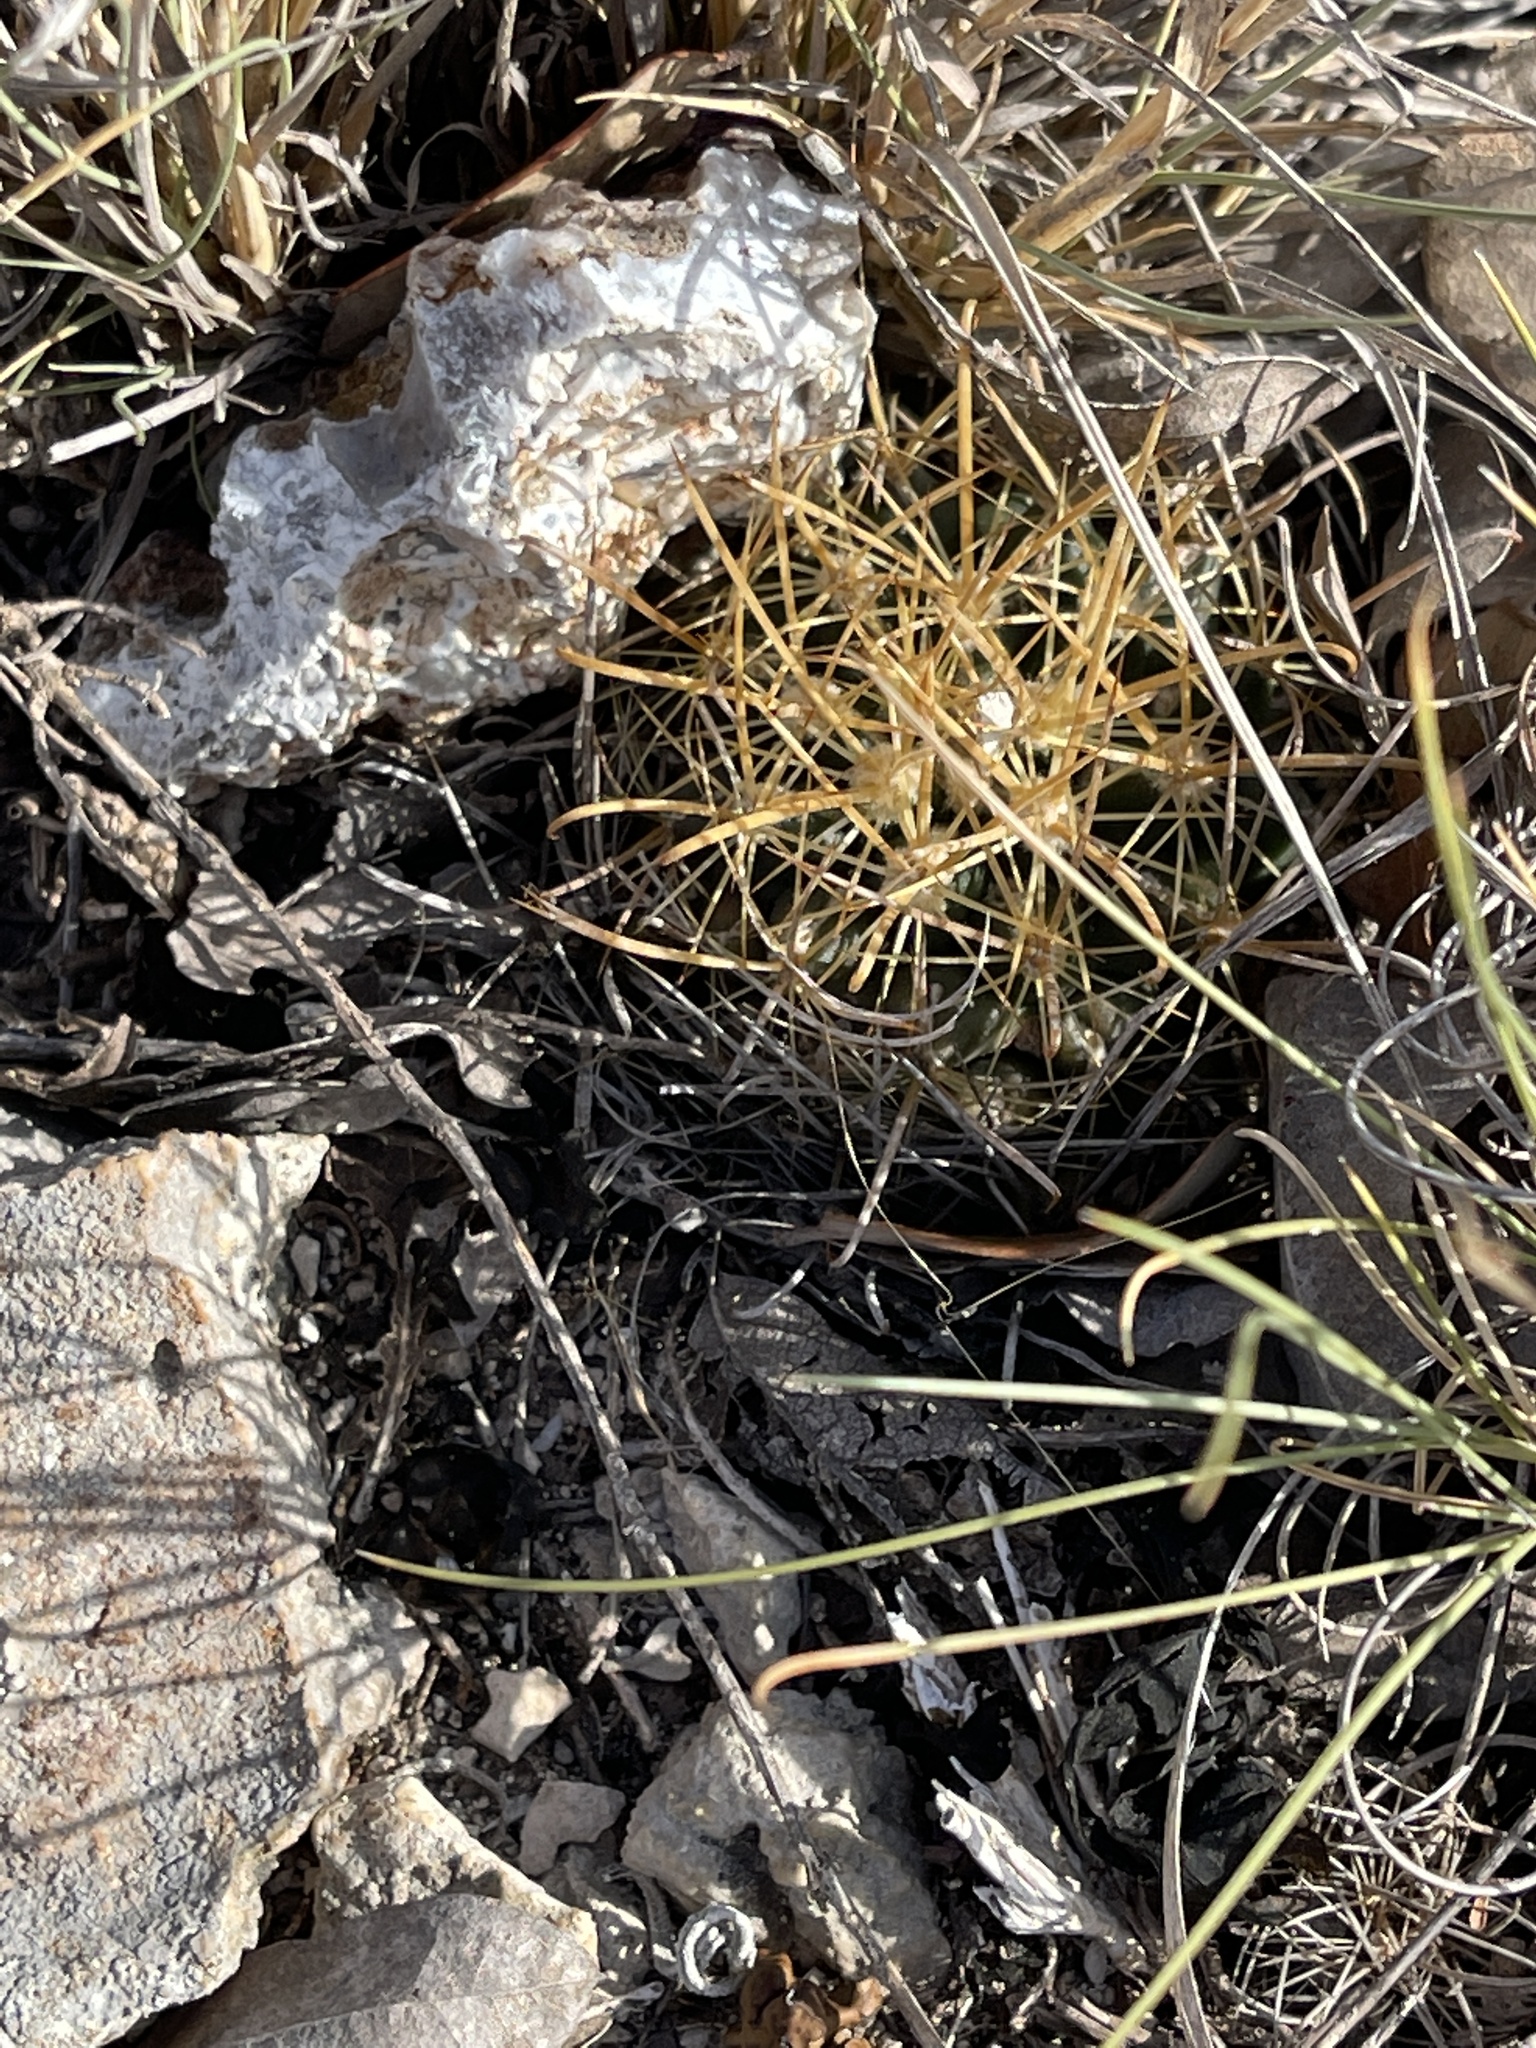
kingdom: Plantae
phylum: Tracheophyta
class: Magnoliopsida
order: Caryophyllales
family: Cactaceae
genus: Sclerocactus
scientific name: Sclerocactus brevihamatus
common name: Engelmann's fishhook cactus
